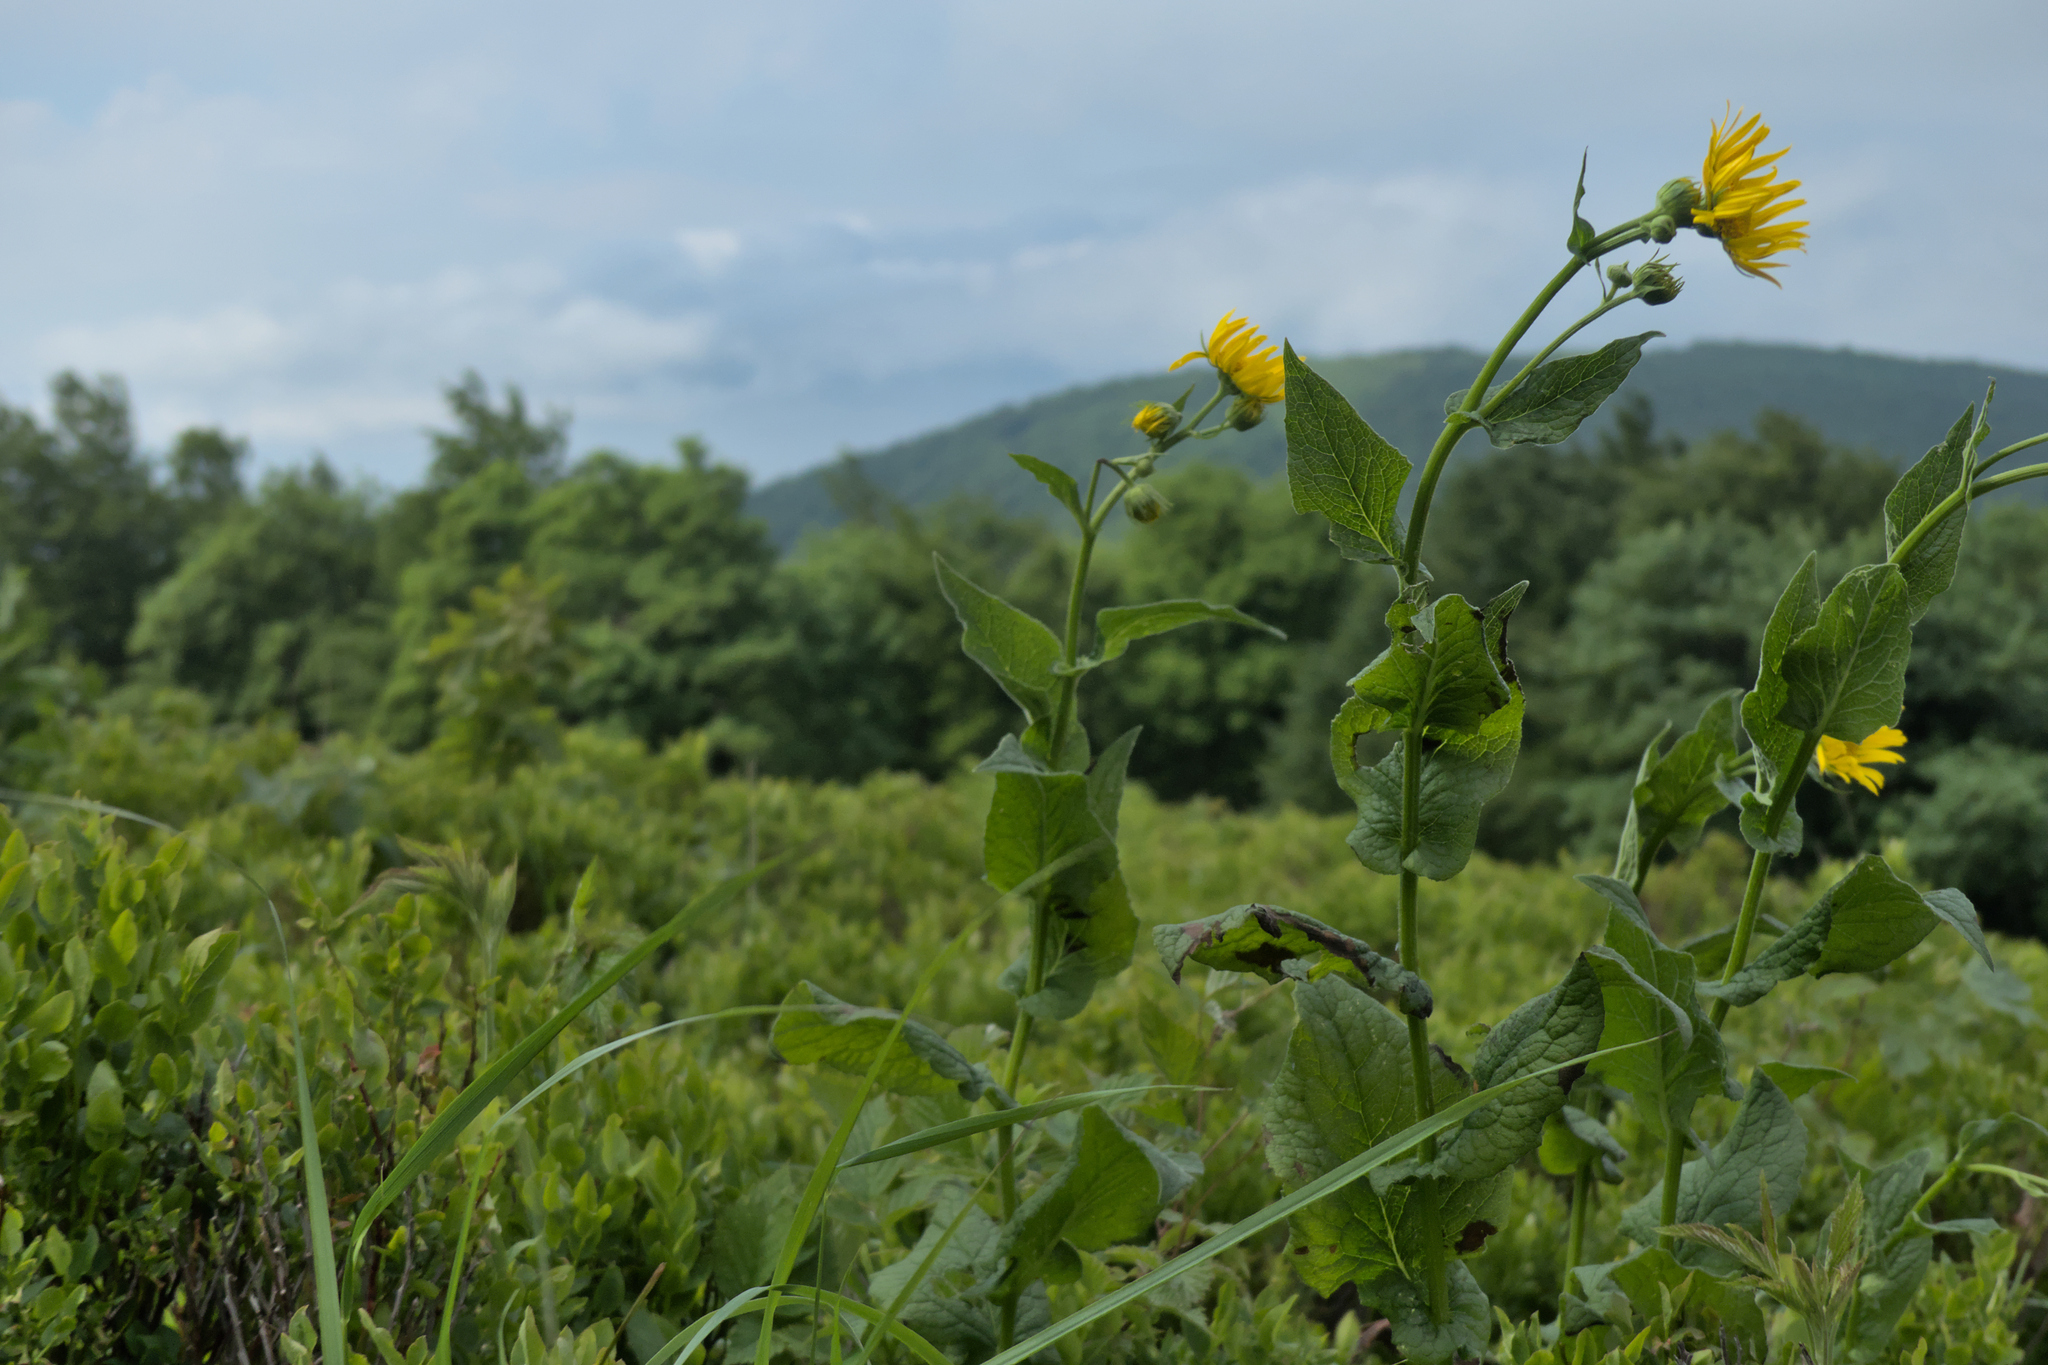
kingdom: Plantae
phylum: Tracheophyta
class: Magnoliopsida
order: Asterales
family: Asteraceae
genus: Doronicum
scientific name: Doronicum austriacum
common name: Austrian leopard's-bane
